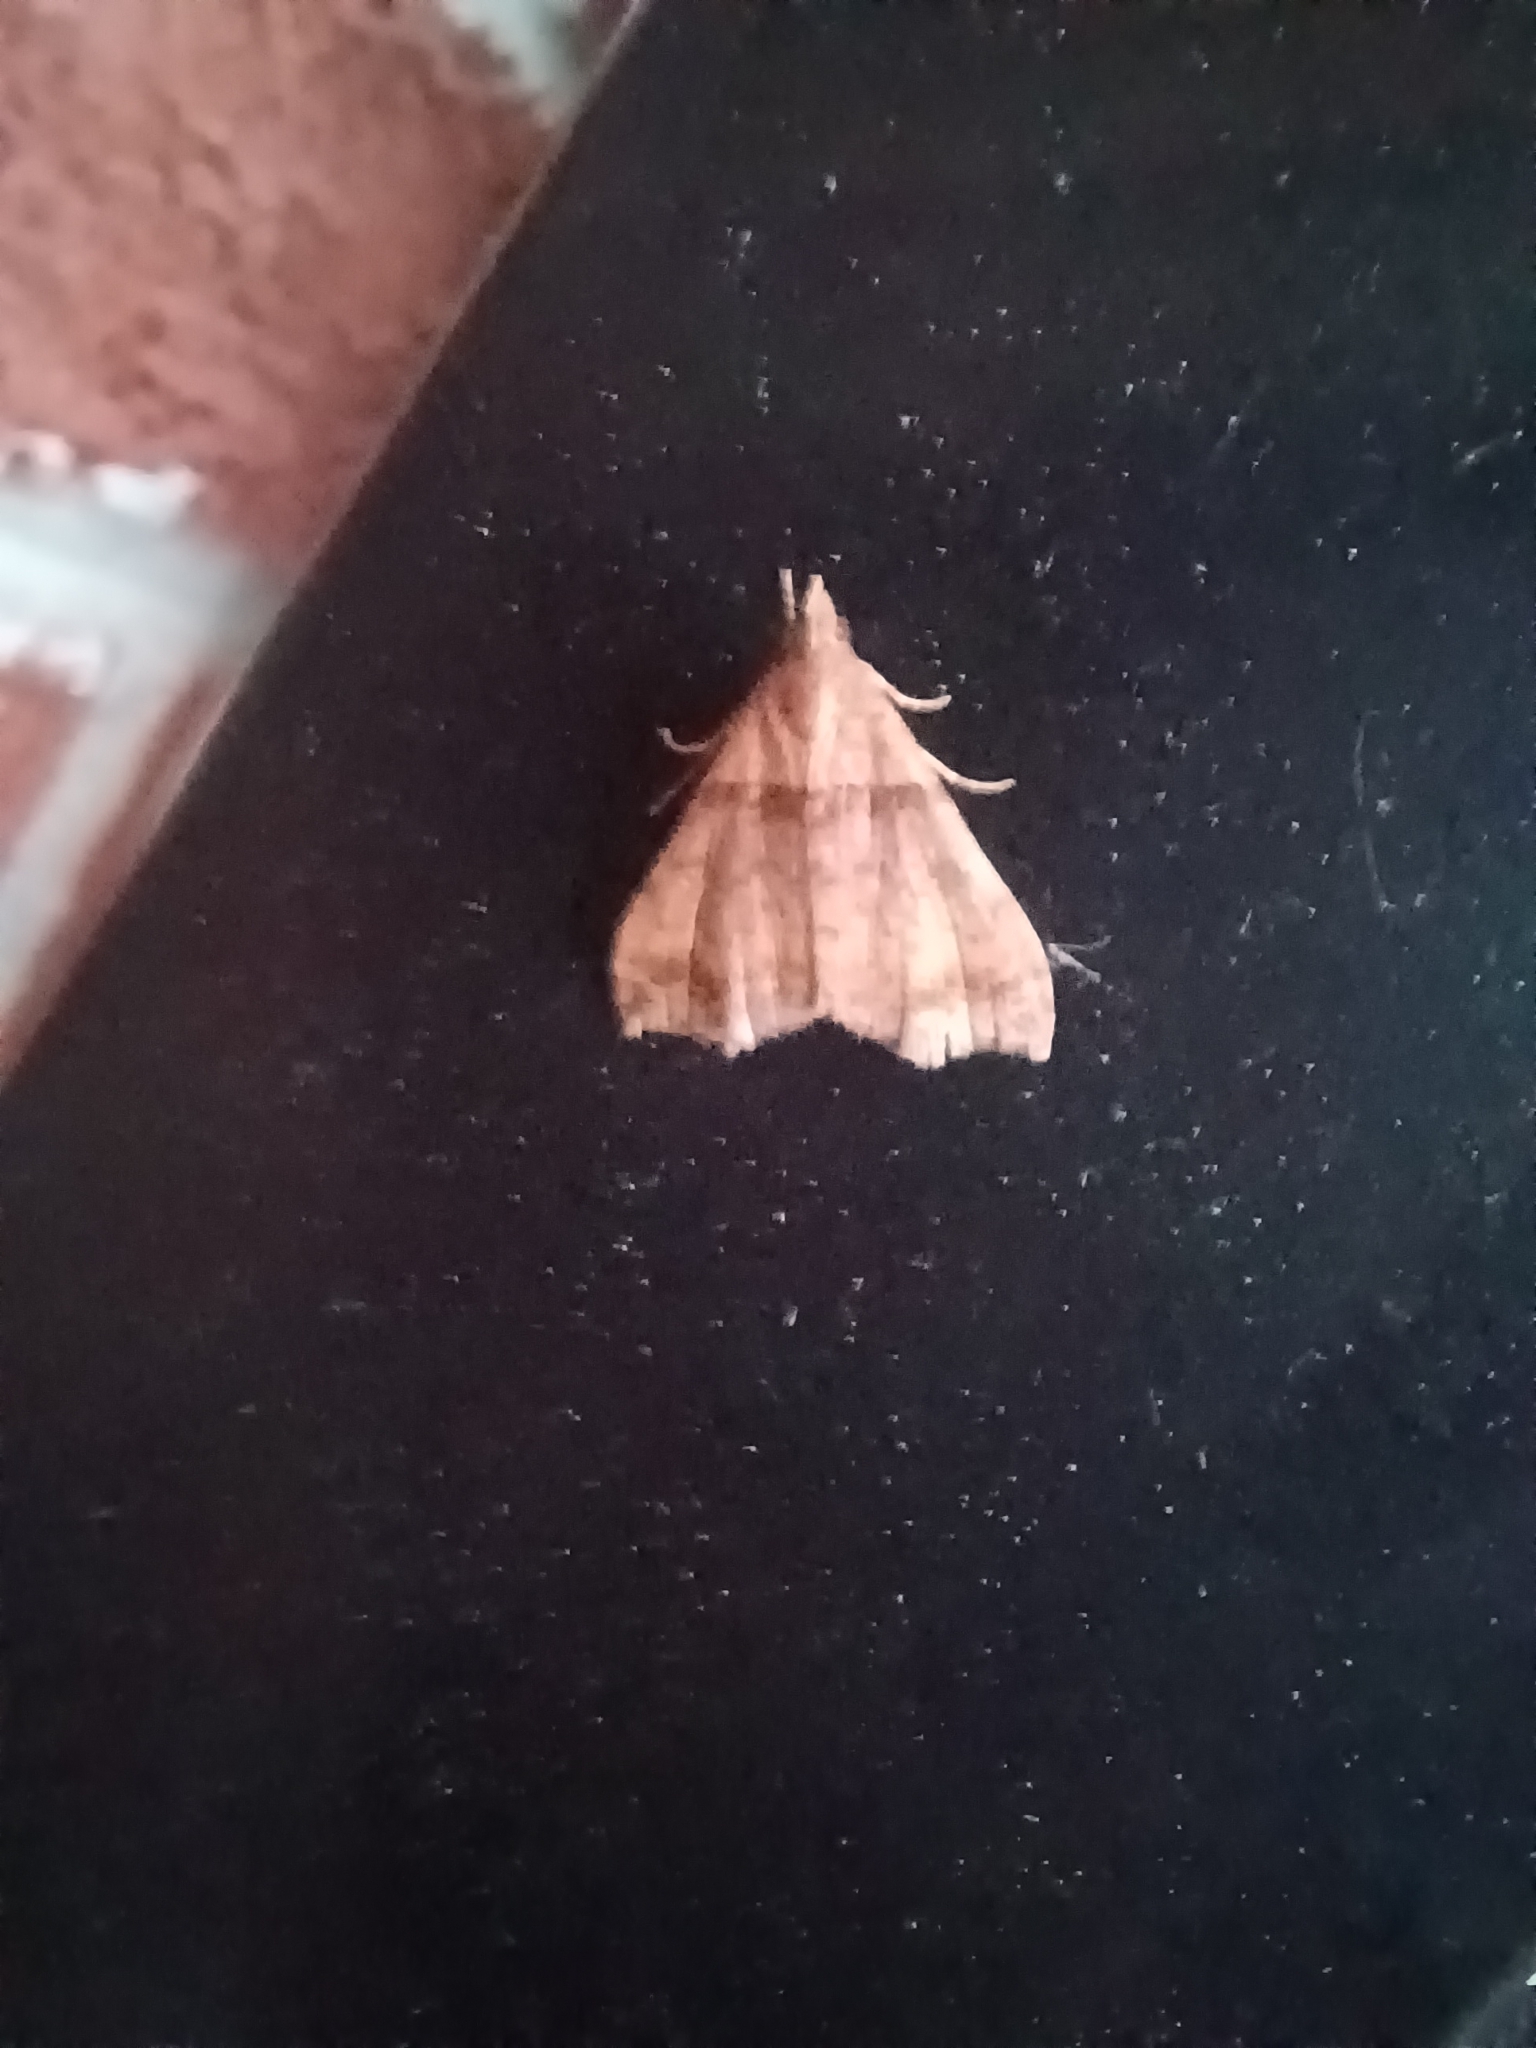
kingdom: Animalia
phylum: Arthropoda
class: Insecta
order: Lepidoptera
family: Erebidae
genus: Lascoria
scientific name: Lascoria ambigualis
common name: Ambiguous moth
